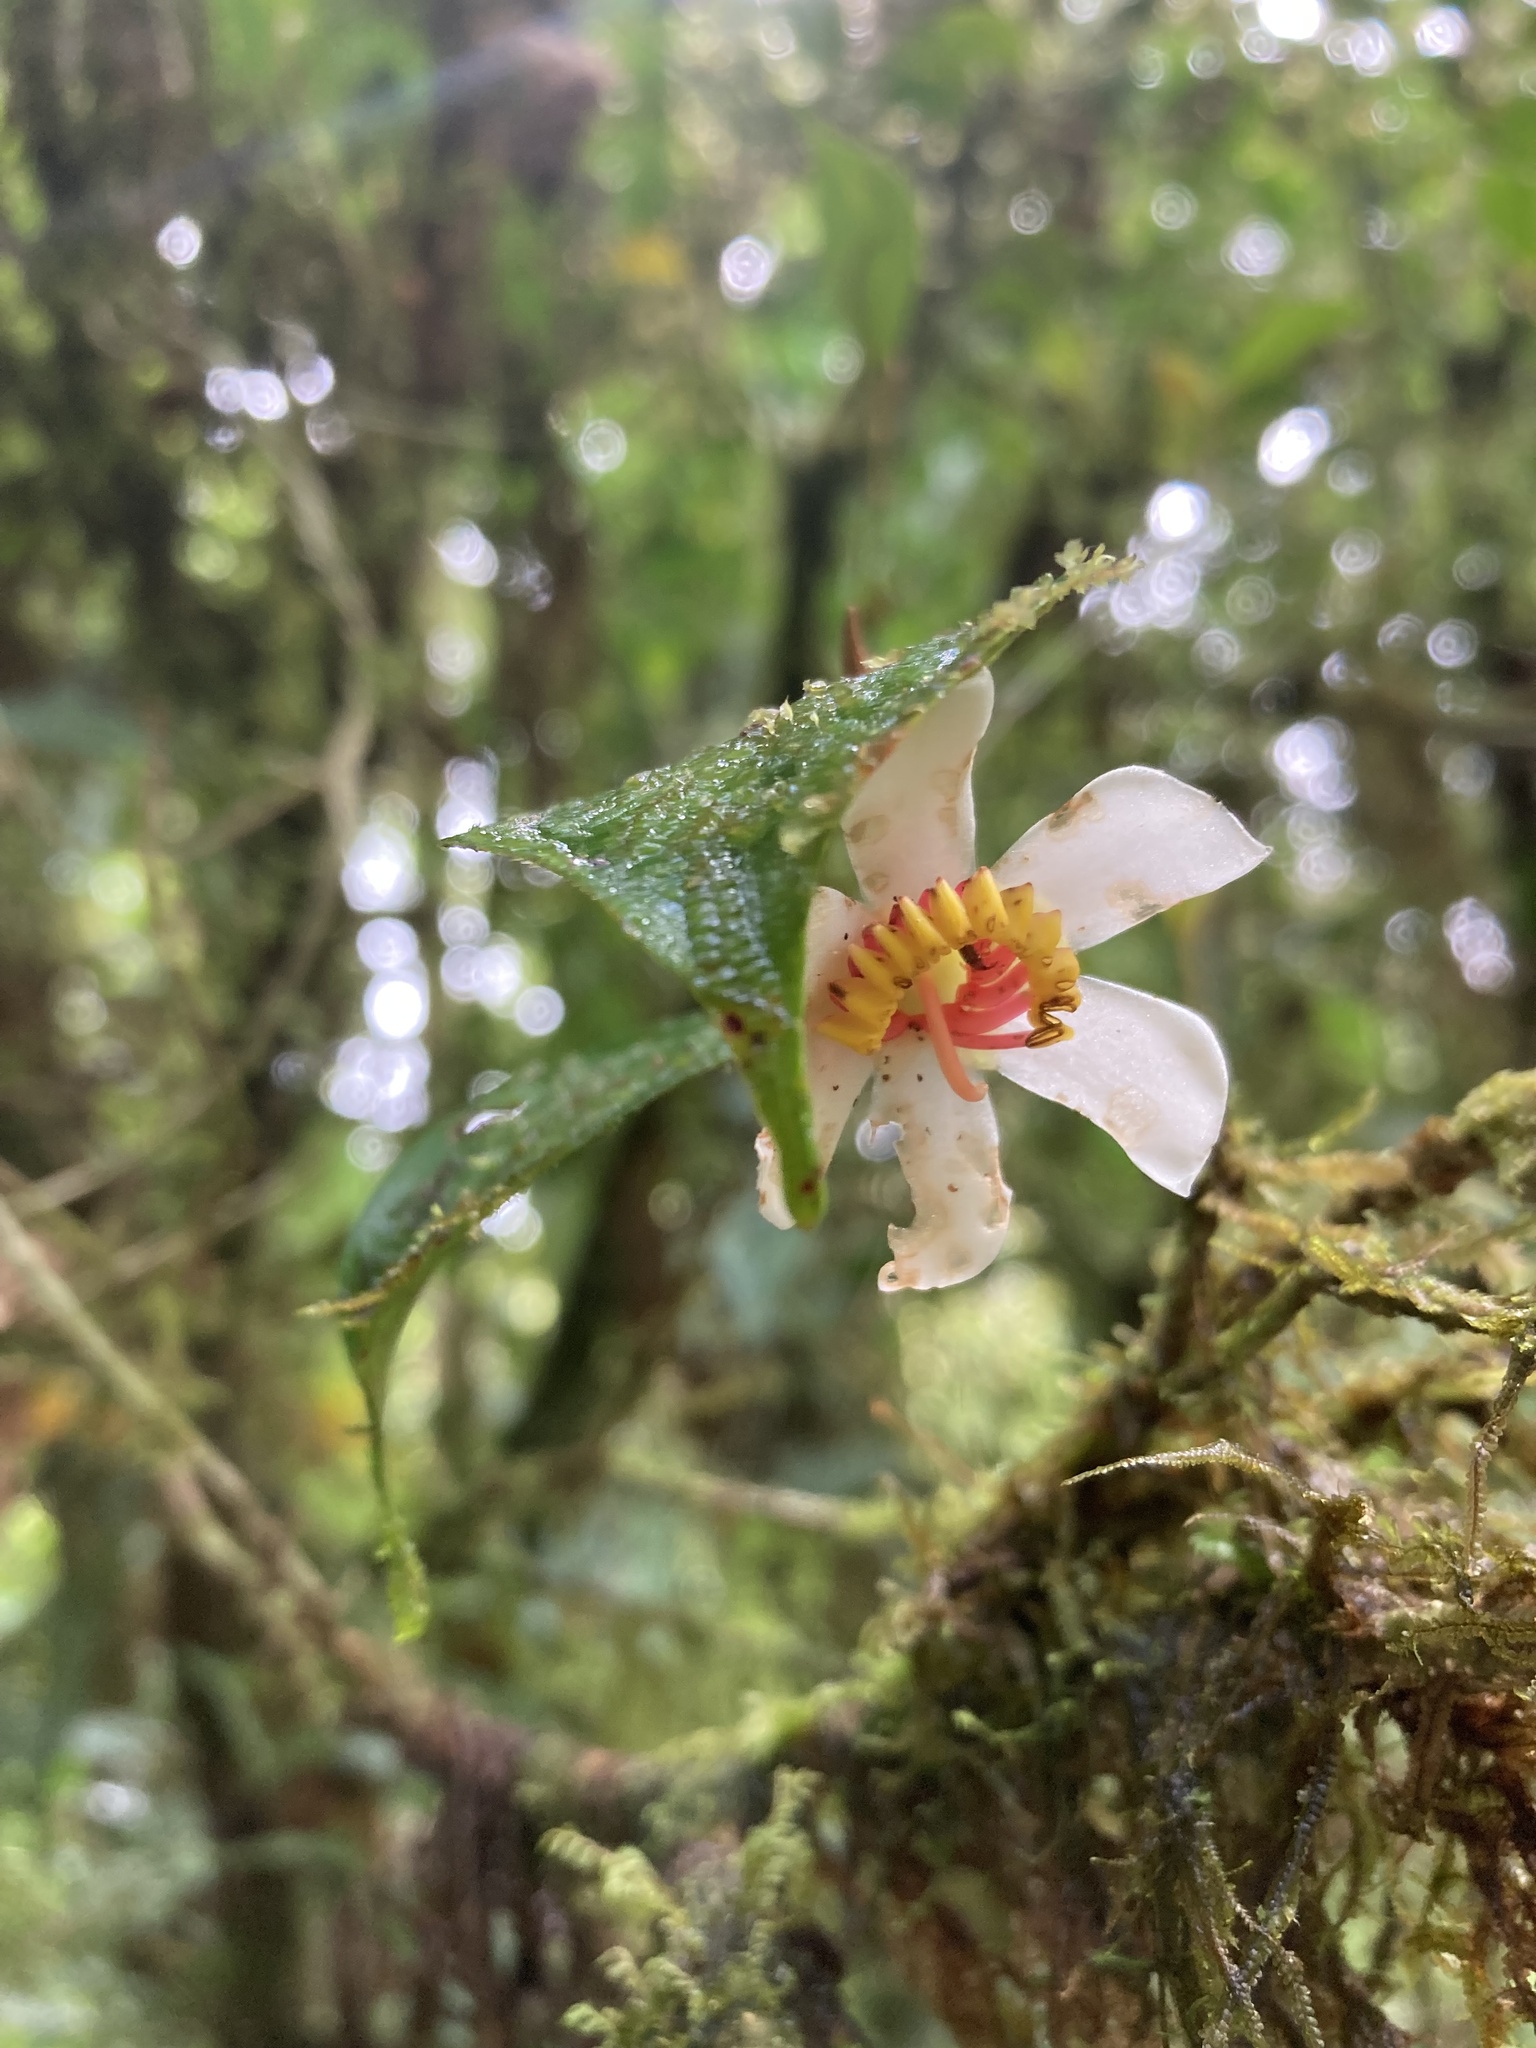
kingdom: Plantae
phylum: Tracheophyta
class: Magnoliopsida
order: Myrtales
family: Melastomataceae
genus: Blakea
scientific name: Blakea anomala
